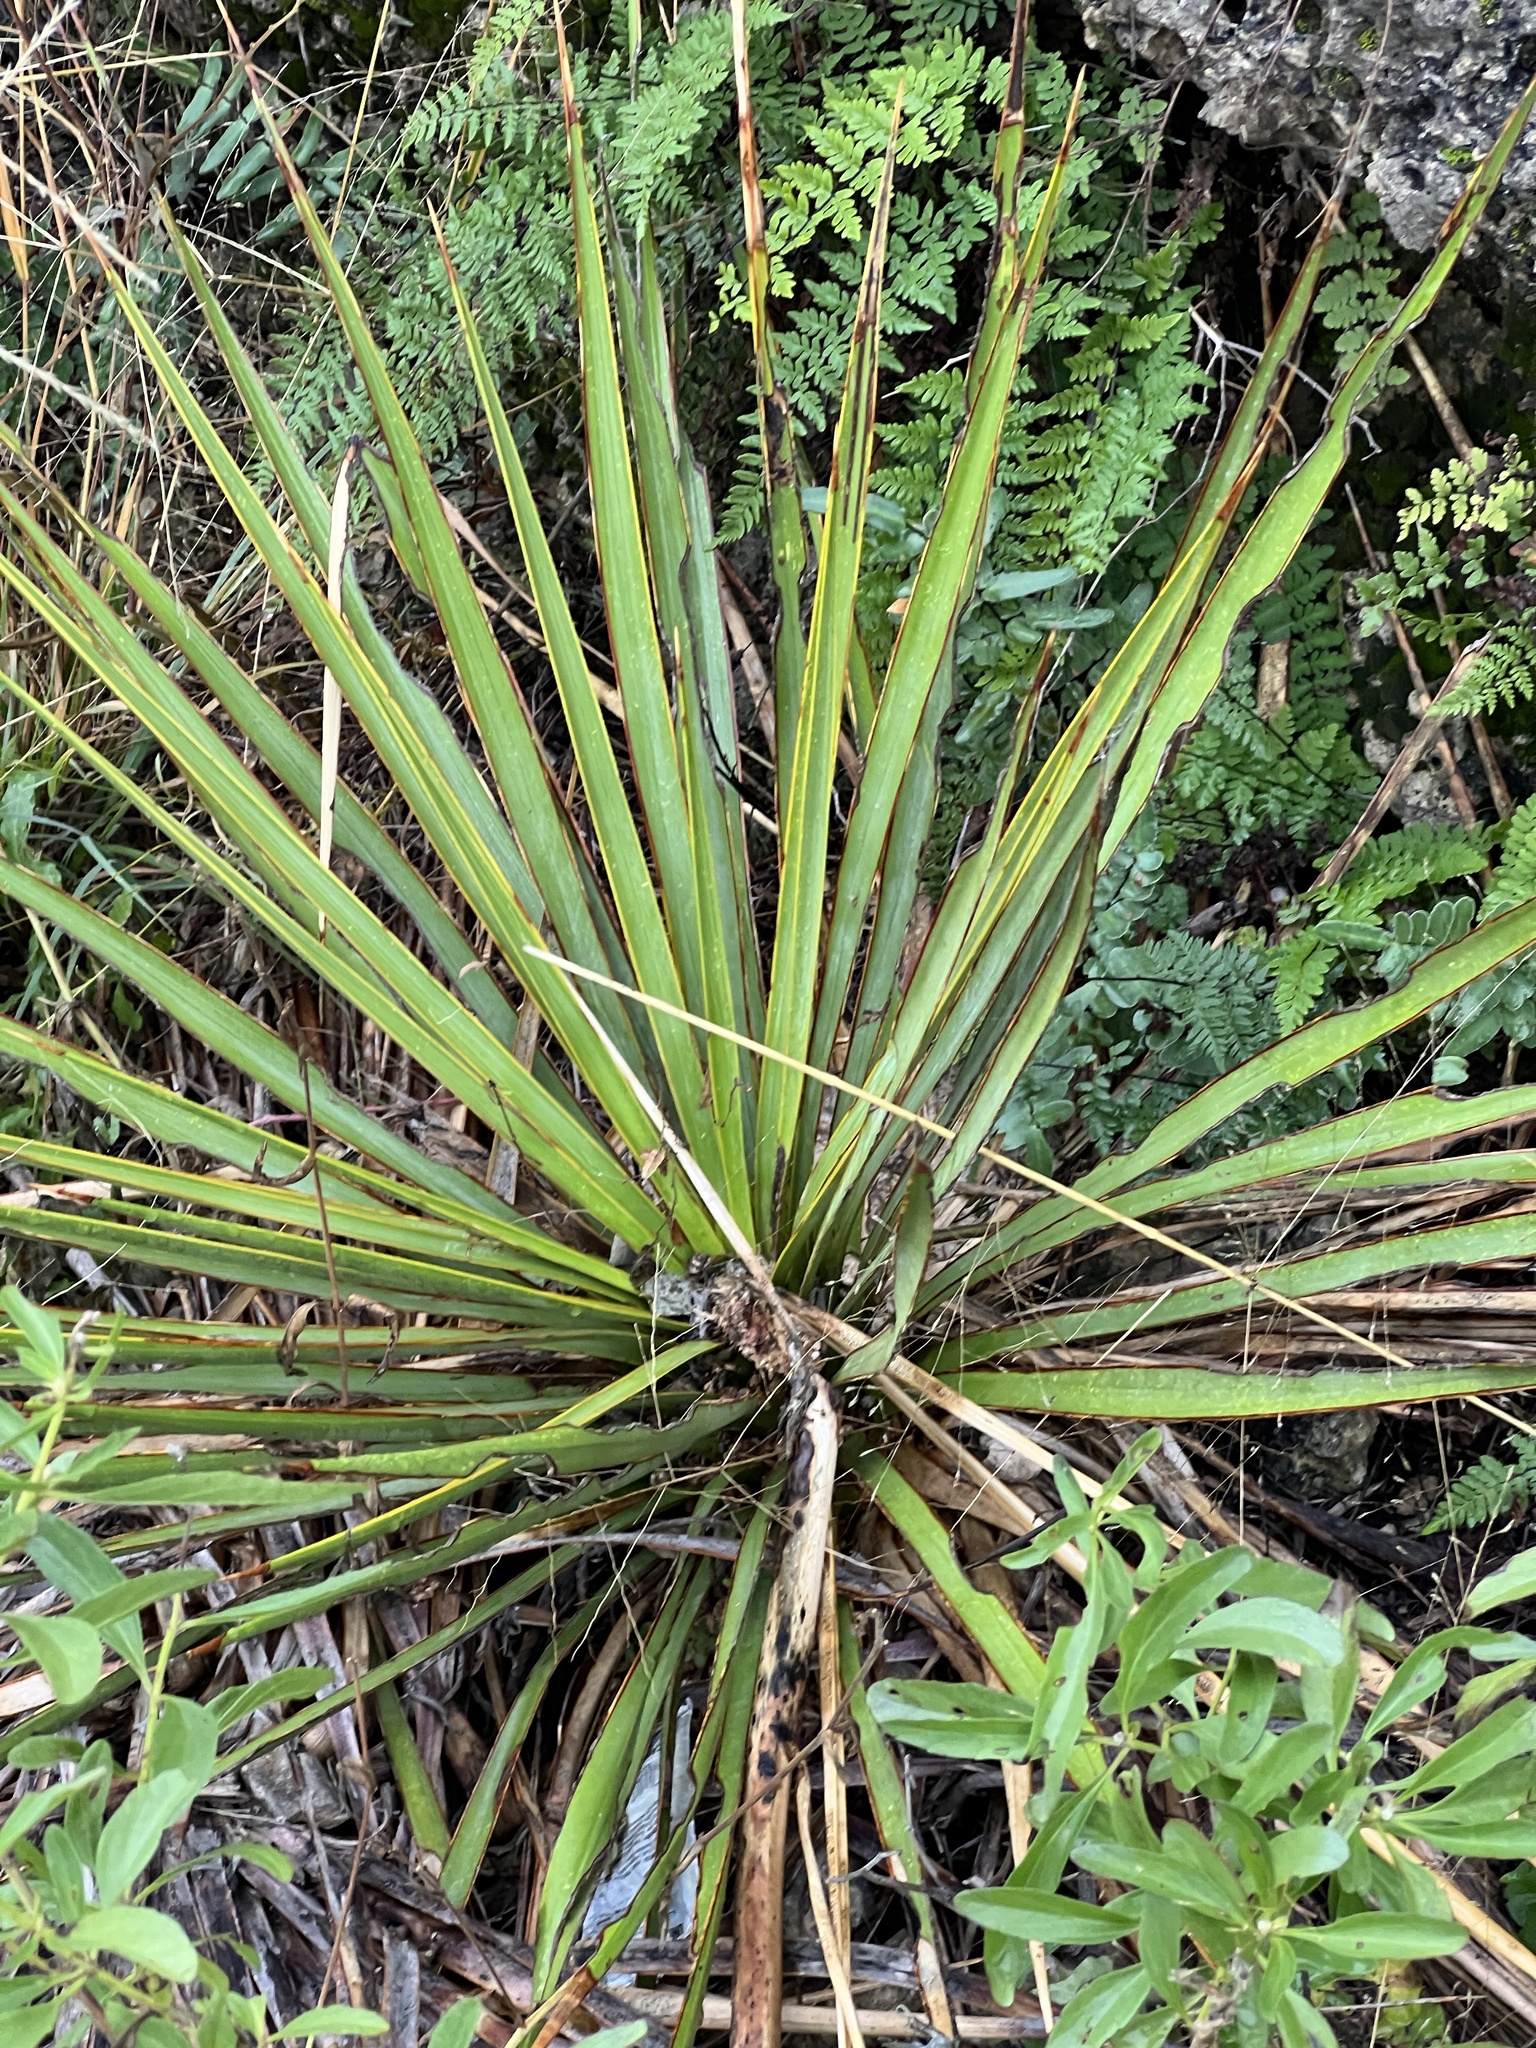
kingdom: Plantae
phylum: Tracheophyta
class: Liliopsida
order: Asparagales
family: Asparagaceae
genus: Yucca
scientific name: Yucca reverchonii
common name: San angelo yucca
